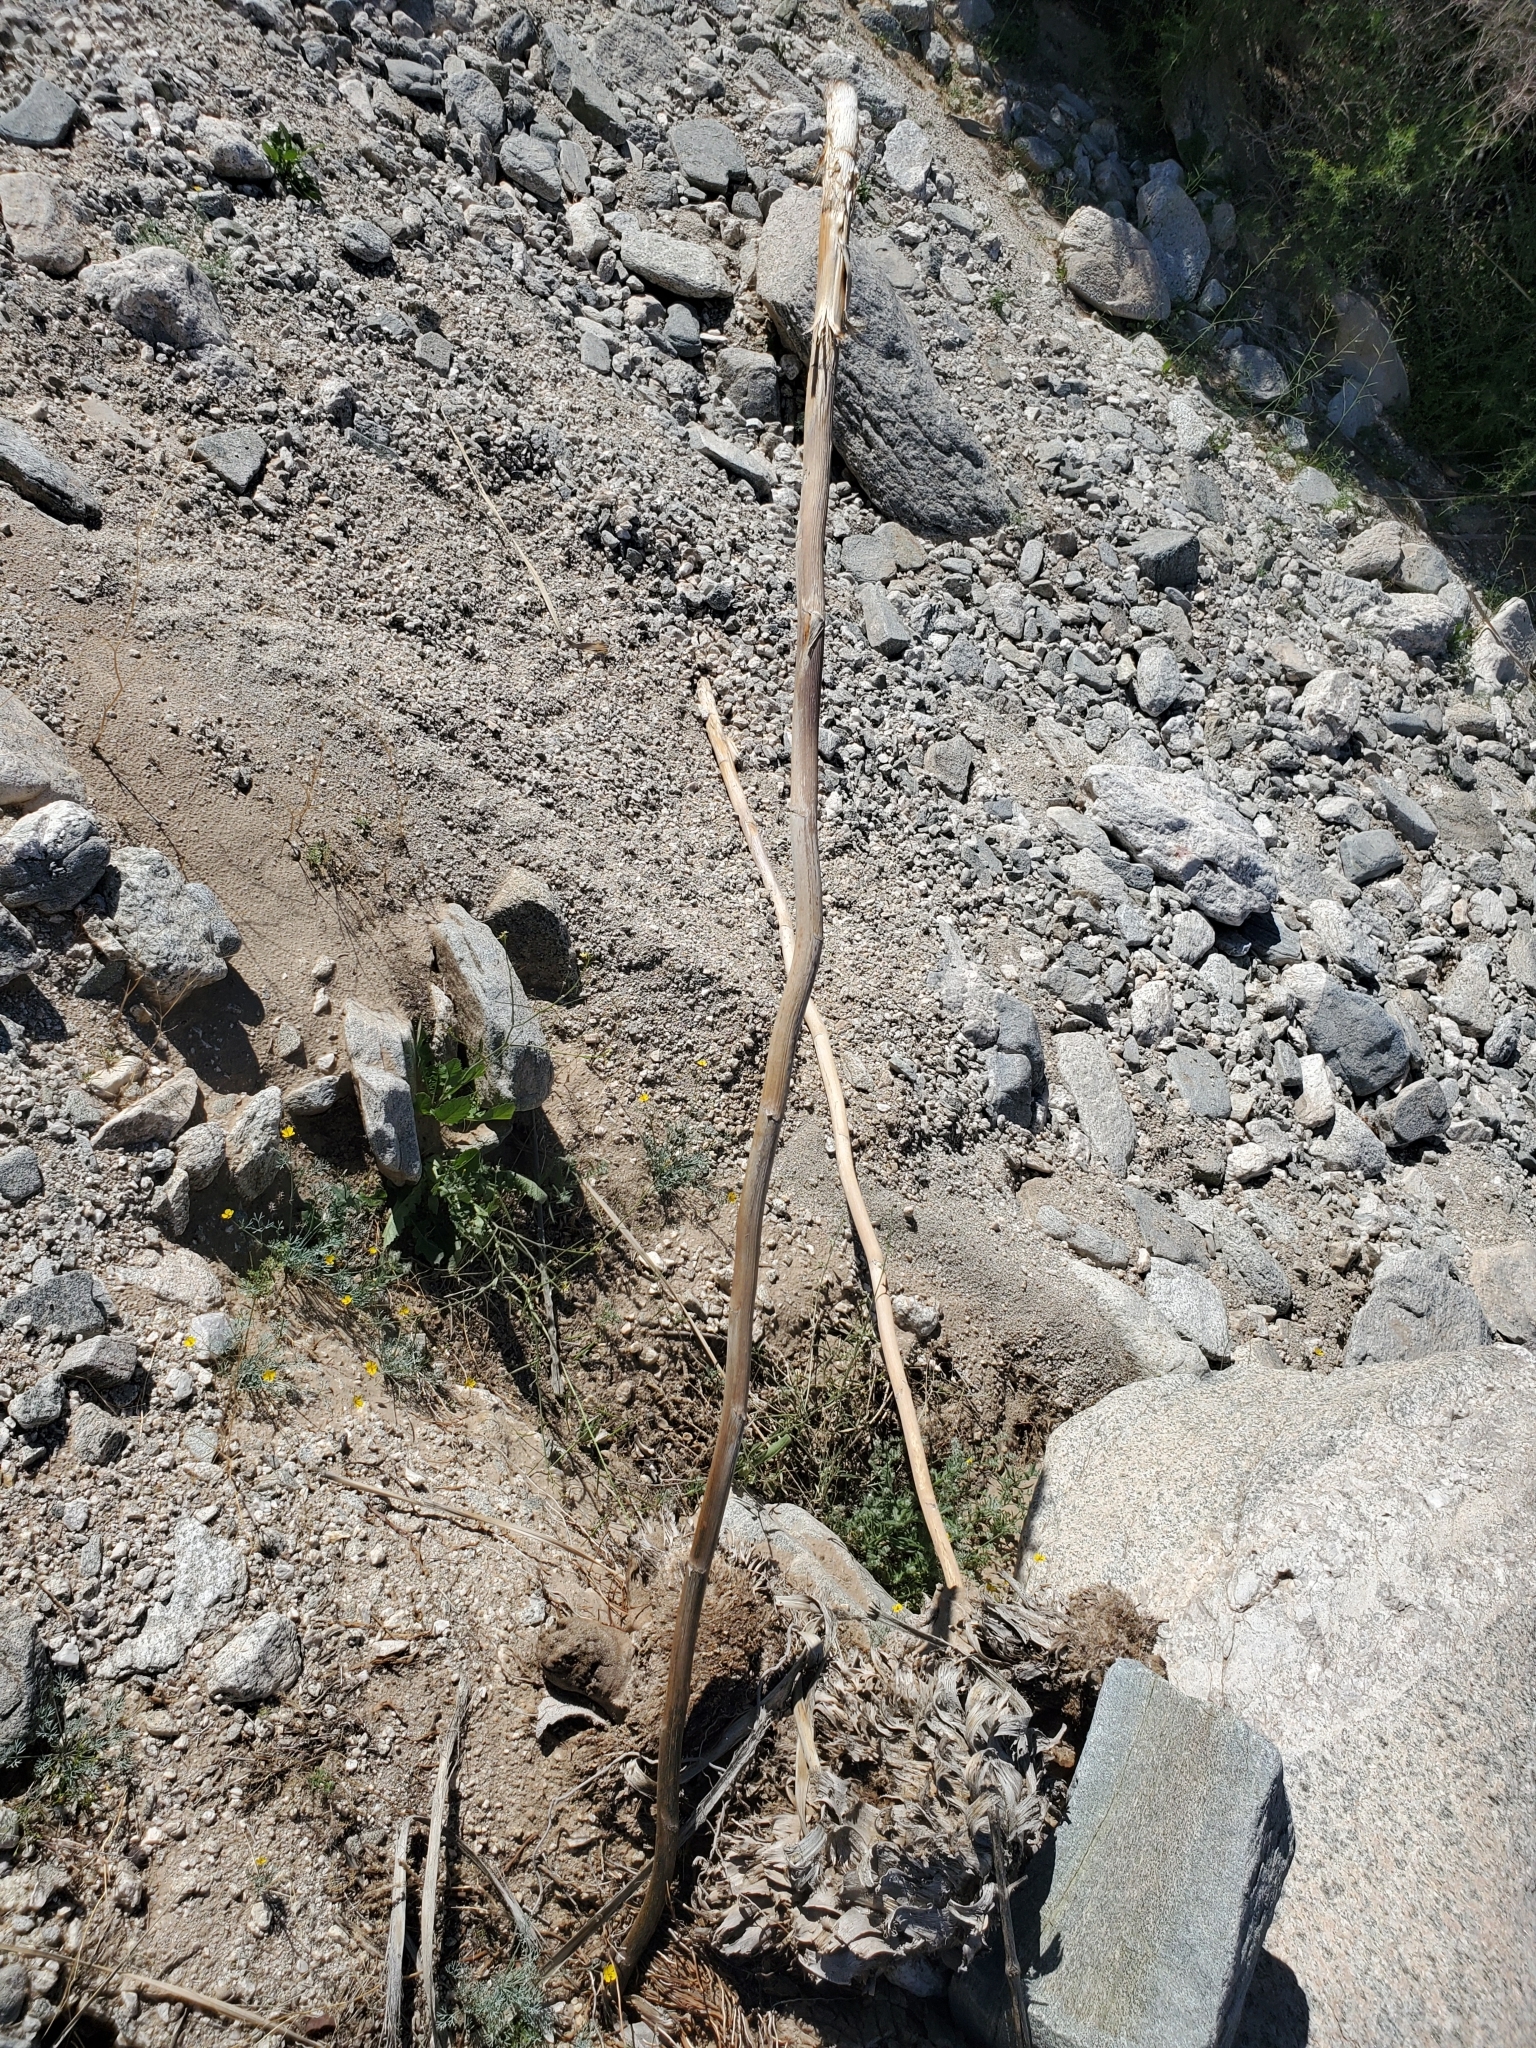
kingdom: Plantae
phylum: Tracheophyta
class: Liliopsida
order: Asparagales
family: Asparagaceae
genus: Nolina
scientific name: Nolina bigelovii
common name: Bigelow bear-grass
